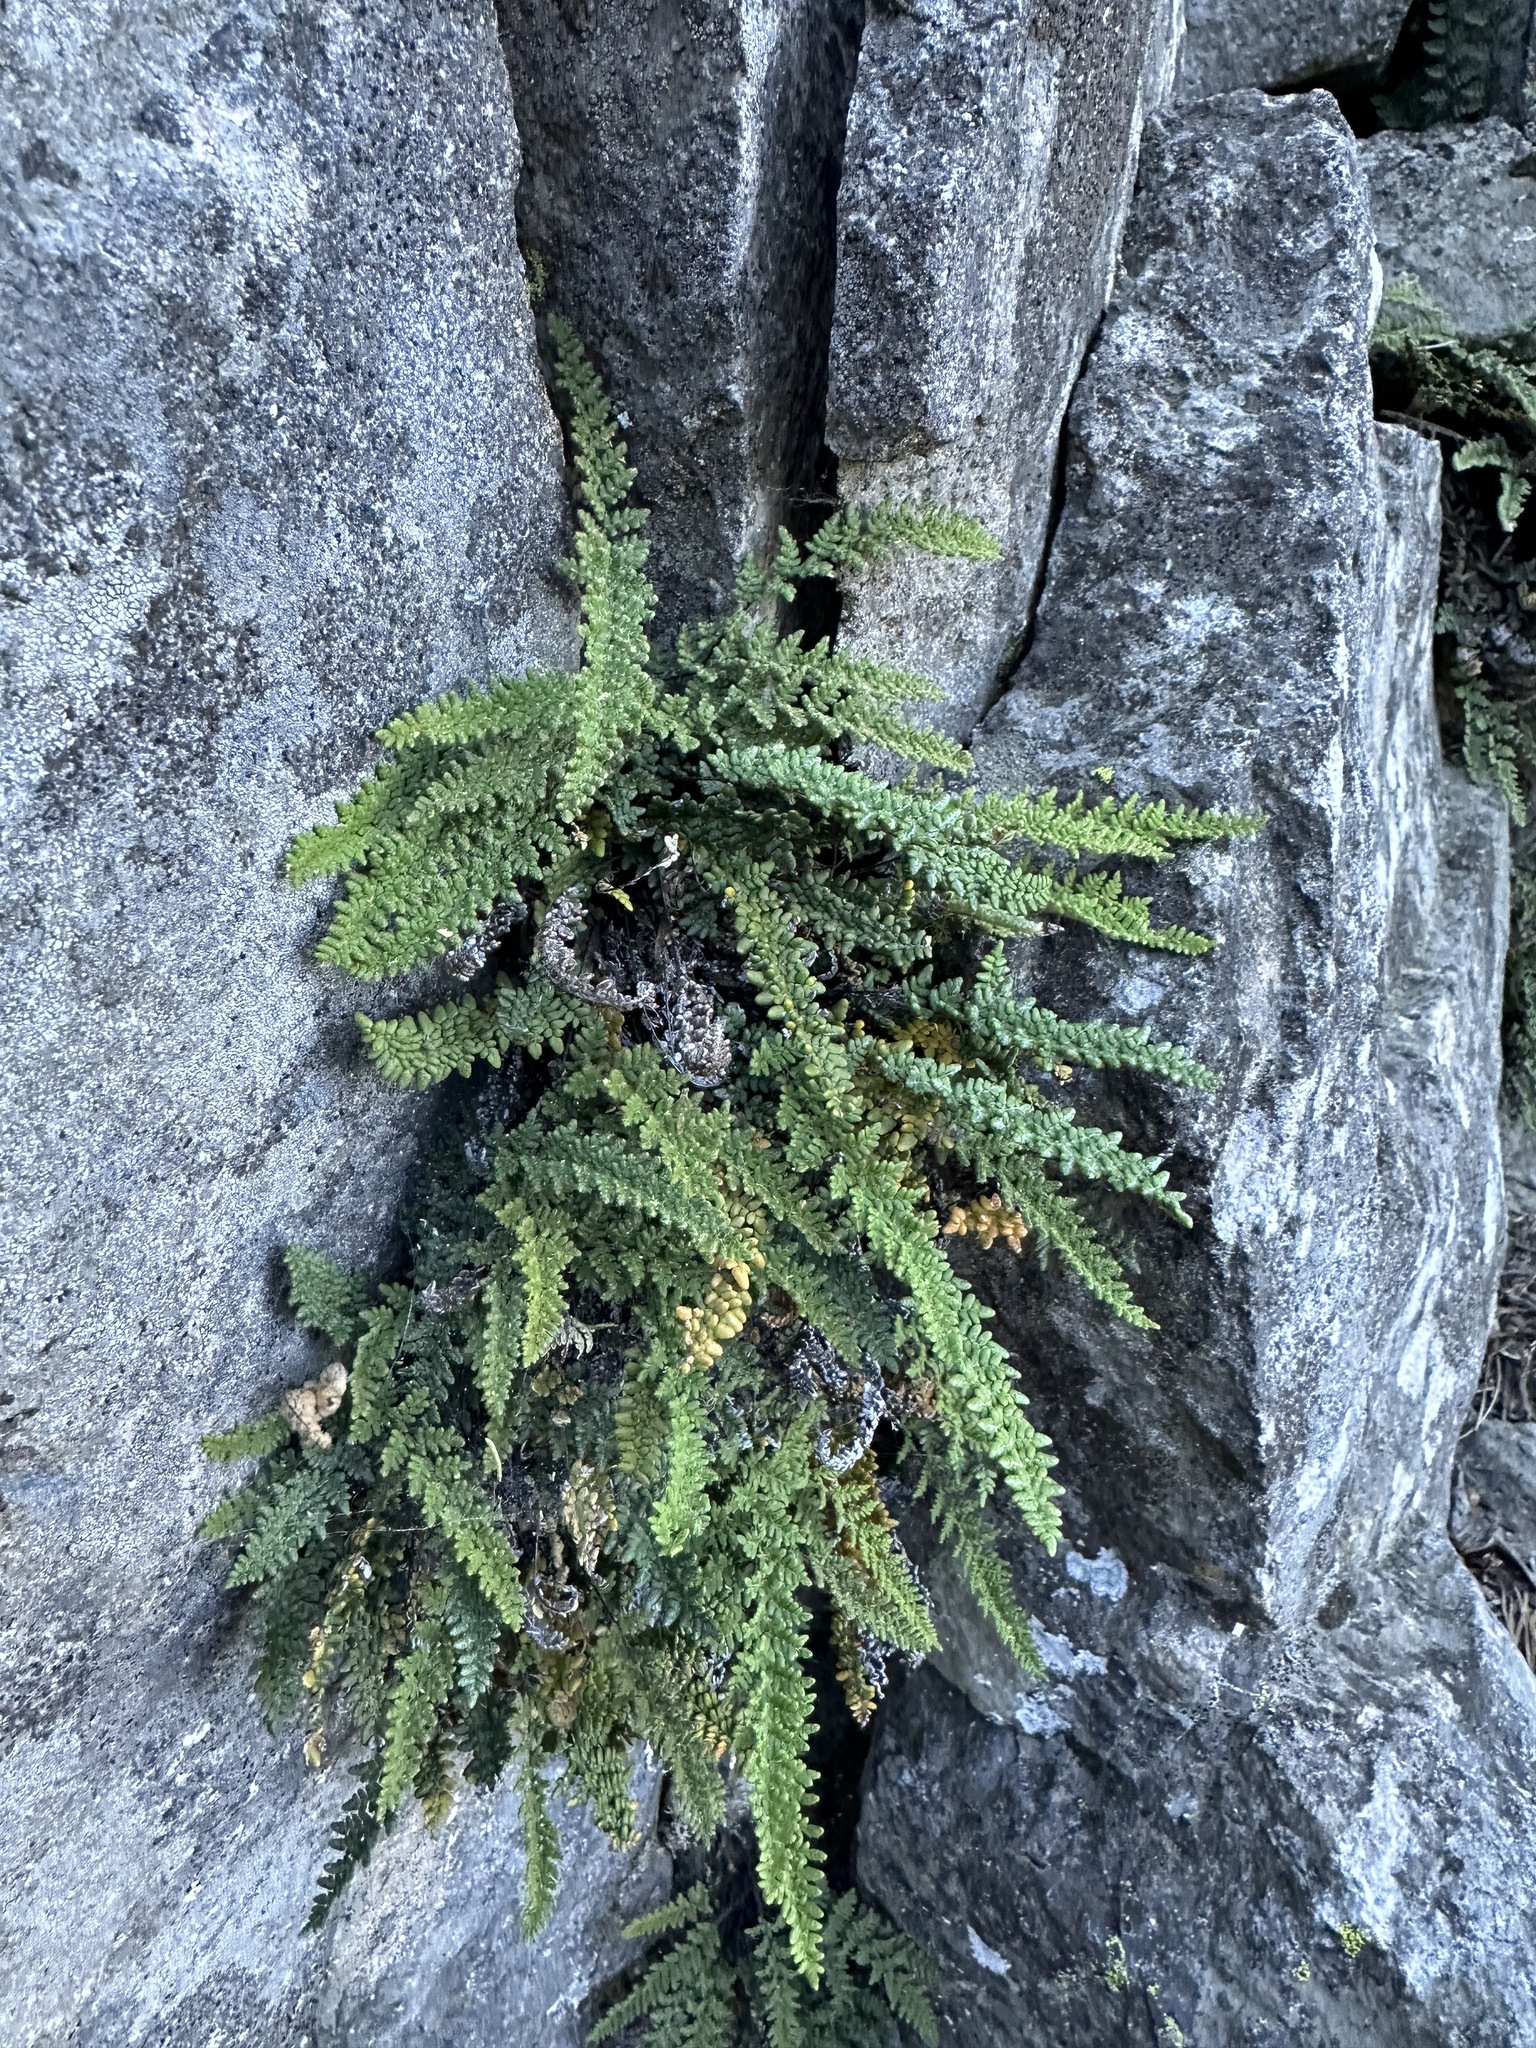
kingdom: Plantae
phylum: Tracheophyta
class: Polypodiopsida
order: Polypodiales
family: Pteridaceae
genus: Myriopteris
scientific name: Myriopteris gracillima
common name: Lace fern
